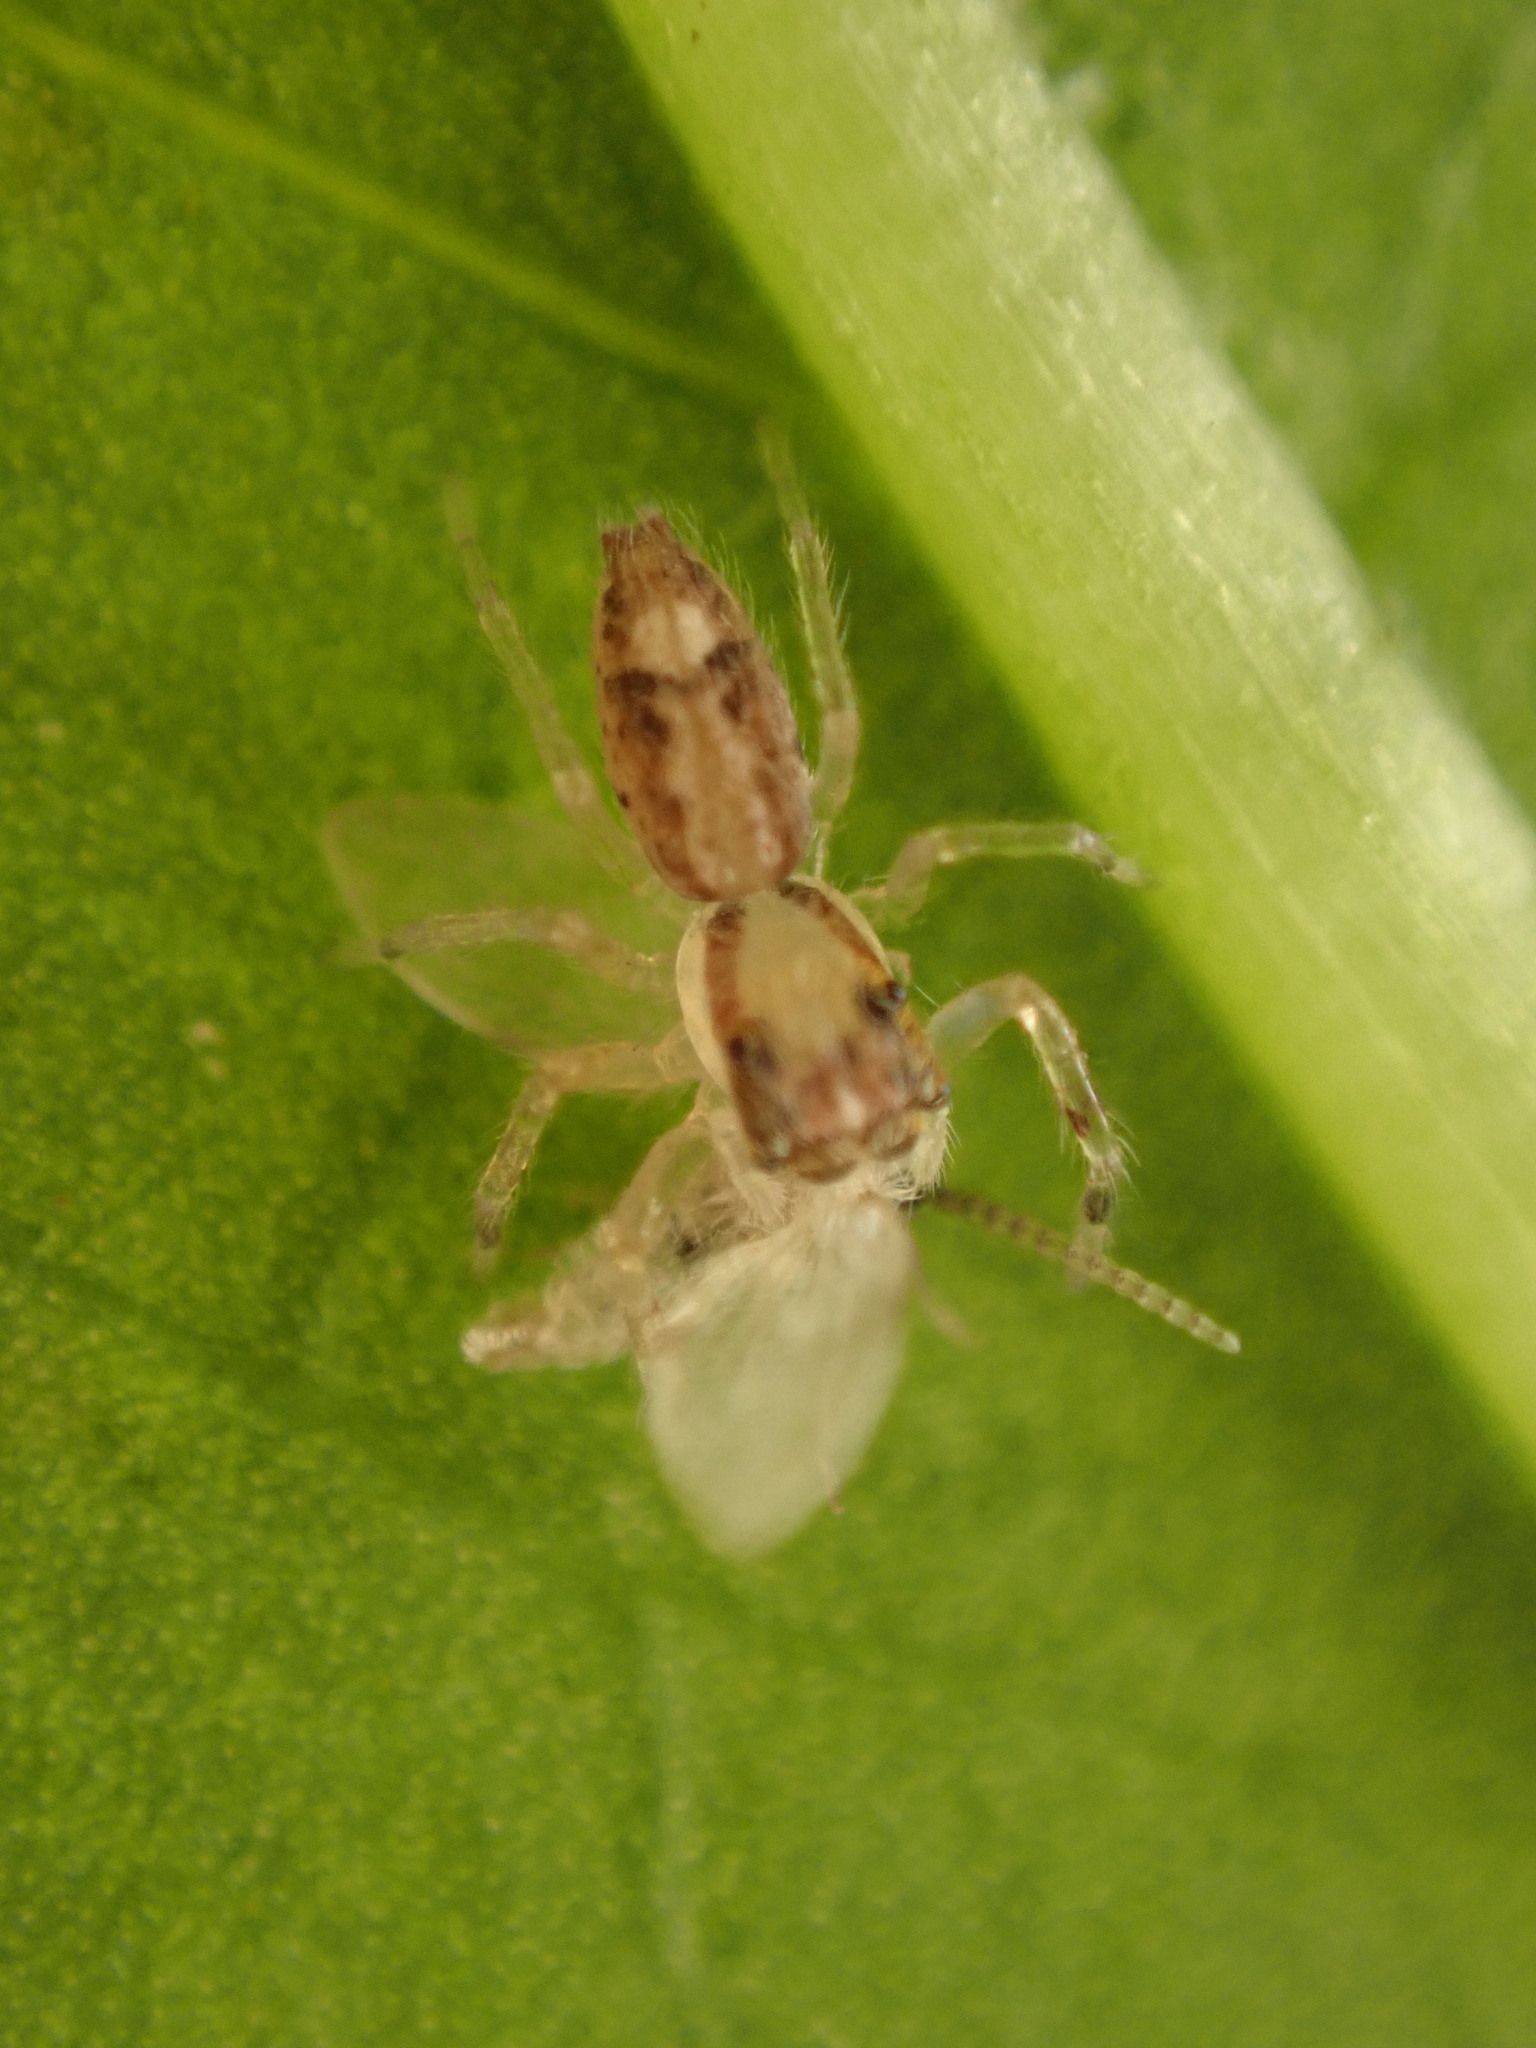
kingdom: Animalia
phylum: Arthropoda
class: Arachnida
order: Araneae
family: Salticidae
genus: Helpis
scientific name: Helpis minitabunda
